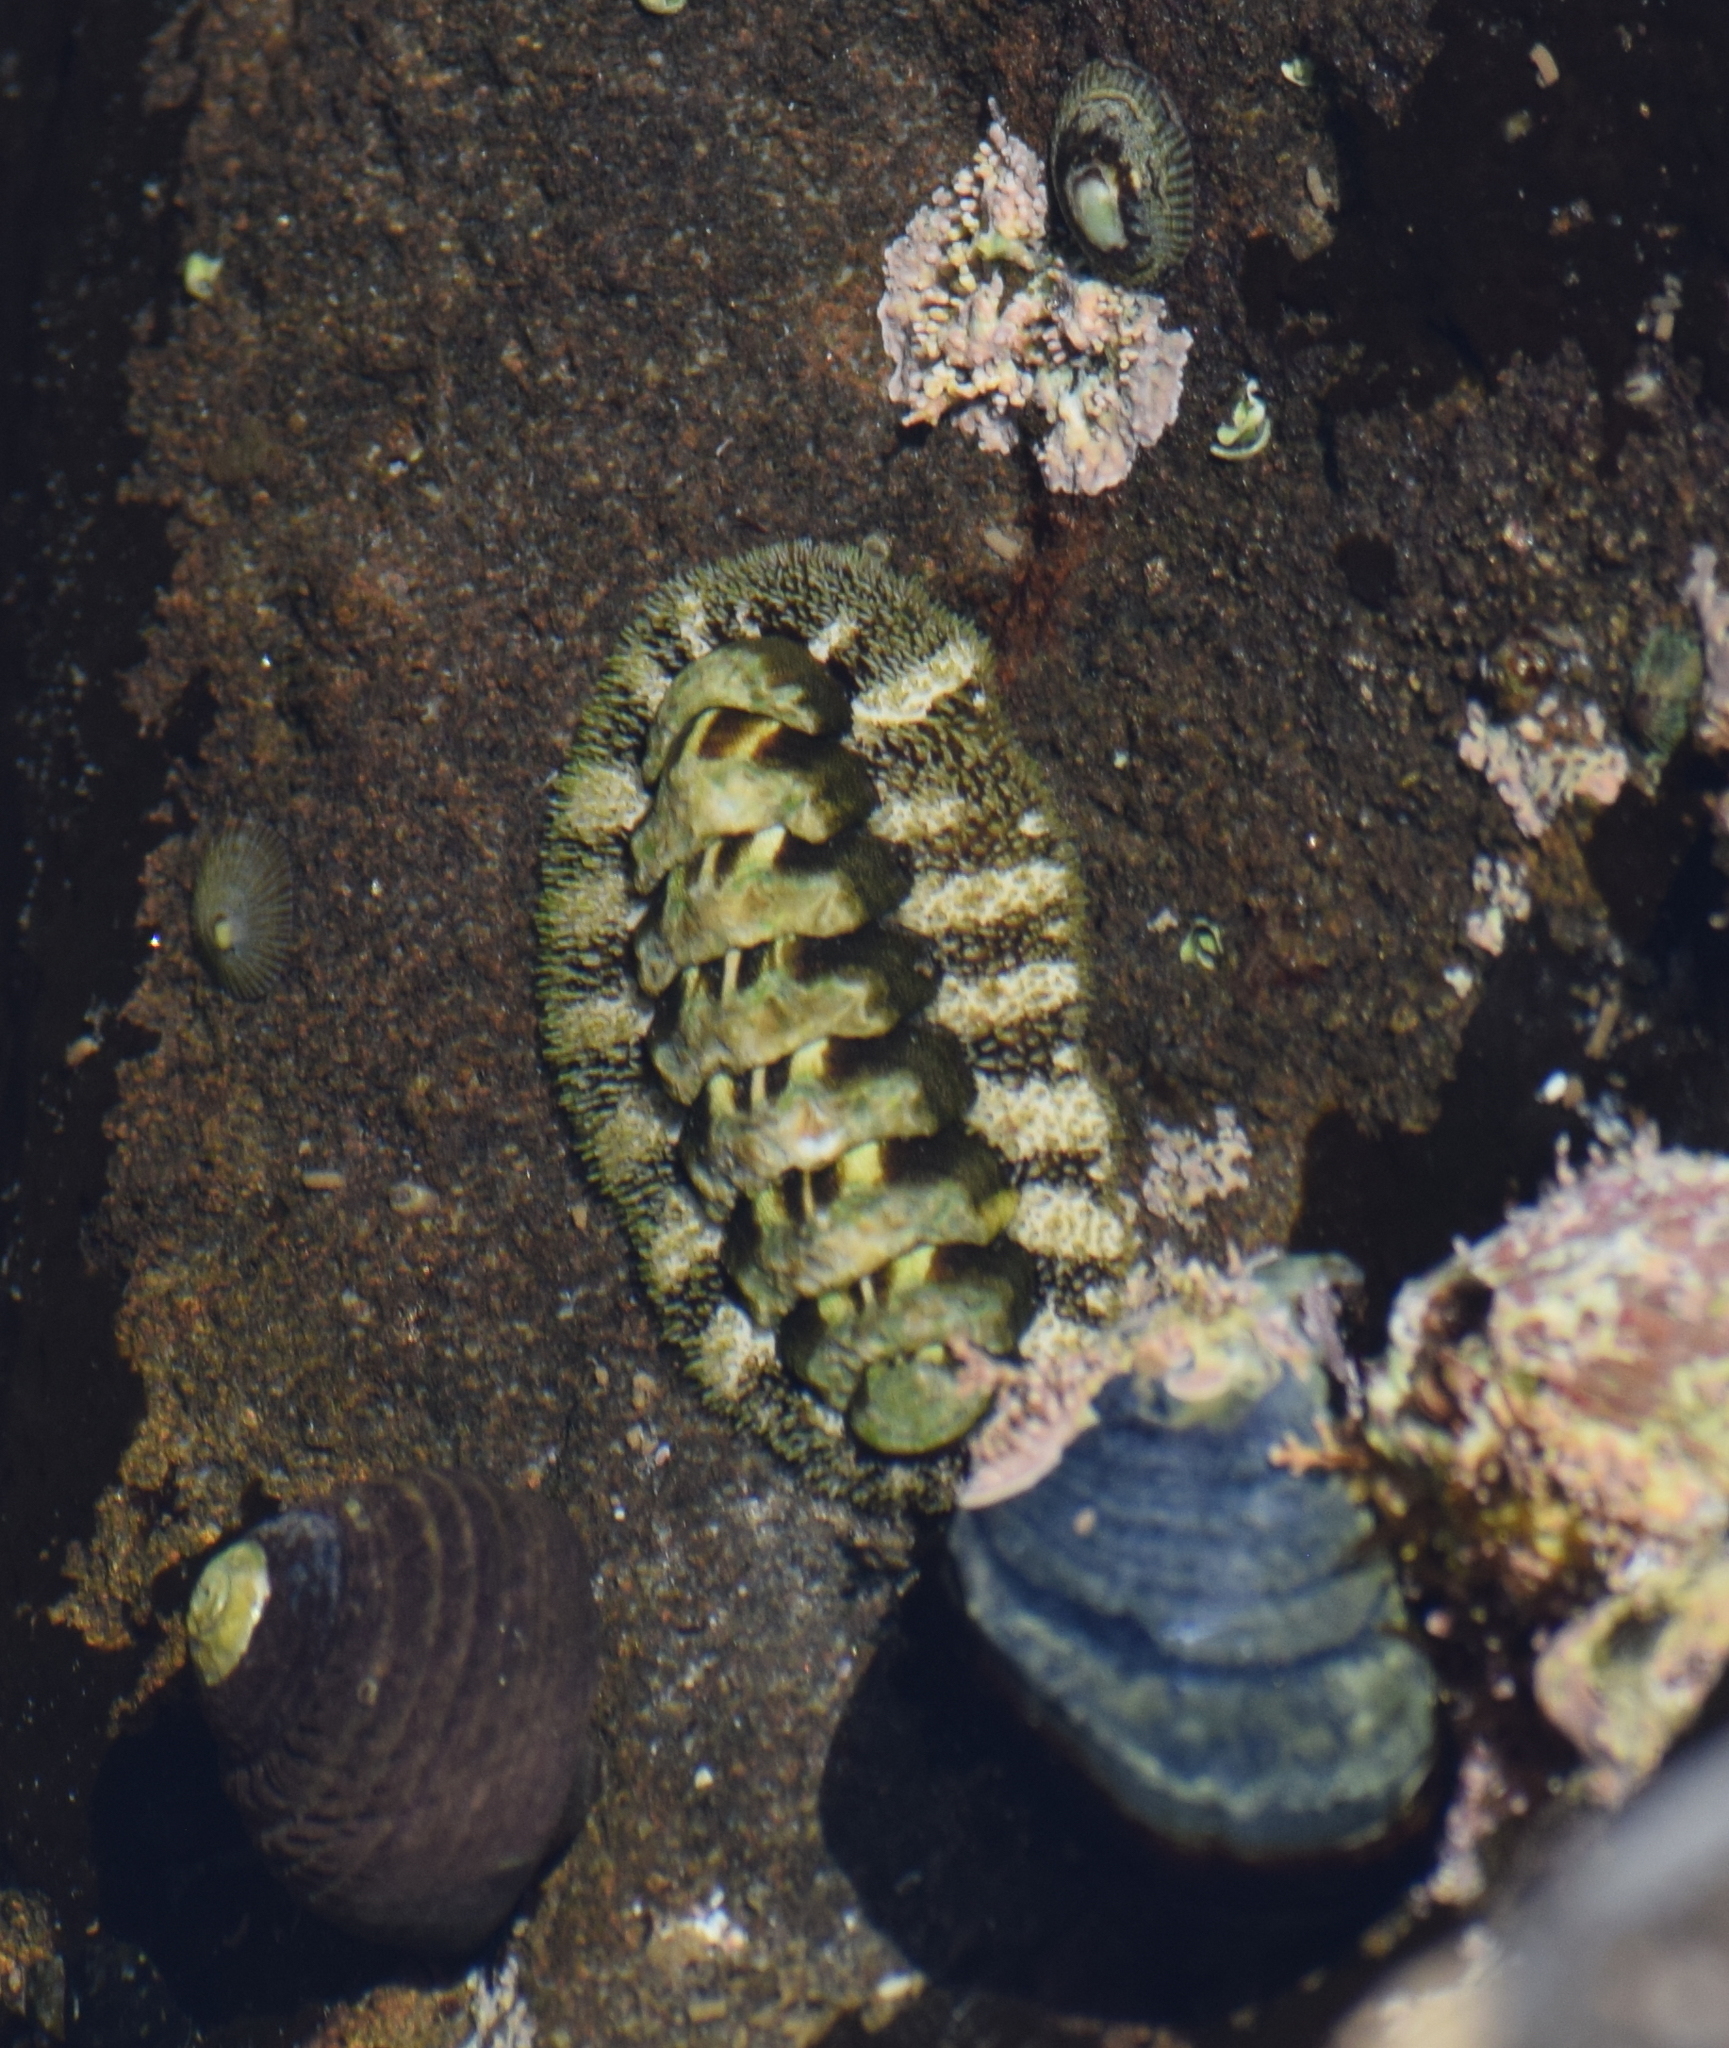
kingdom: Animalia
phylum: Mollusca
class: Polyplacophora
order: Chitonida
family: Tonicellidae
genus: Nuttallina
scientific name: Nuttallina californica
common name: California nuttall chiton
